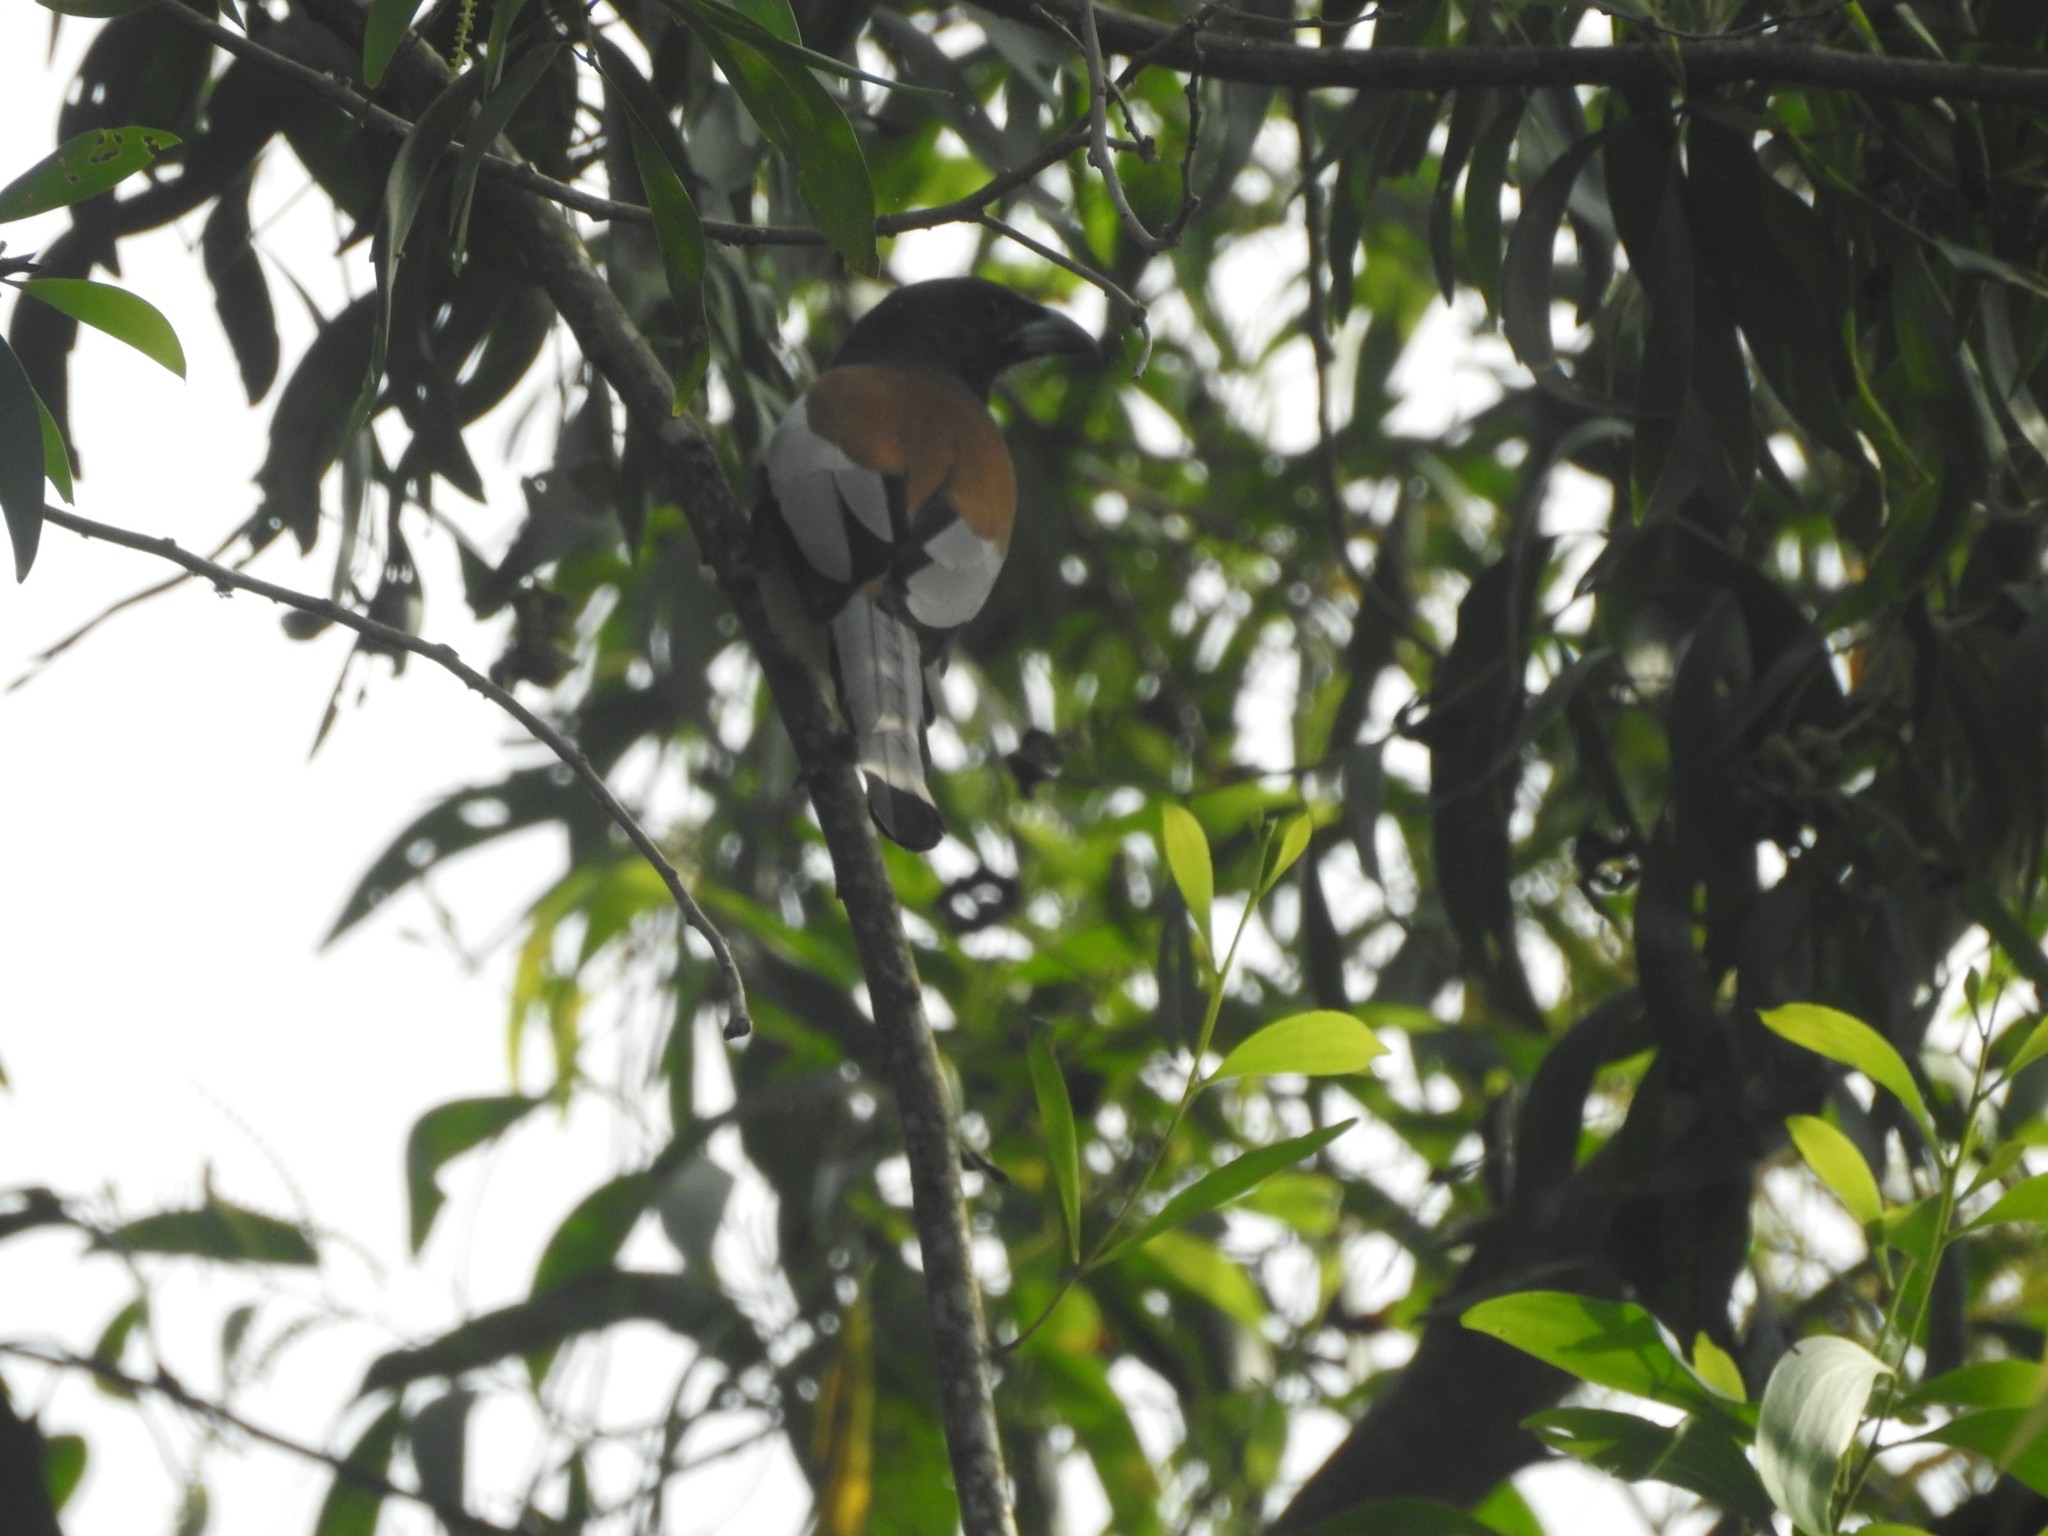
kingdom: Animalia
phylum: Chordata
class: Aves
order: Passeriformes
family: Corvidae
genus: Dendrocitta
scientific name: Dendrocitta vagabunda
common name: Rufous treepie
